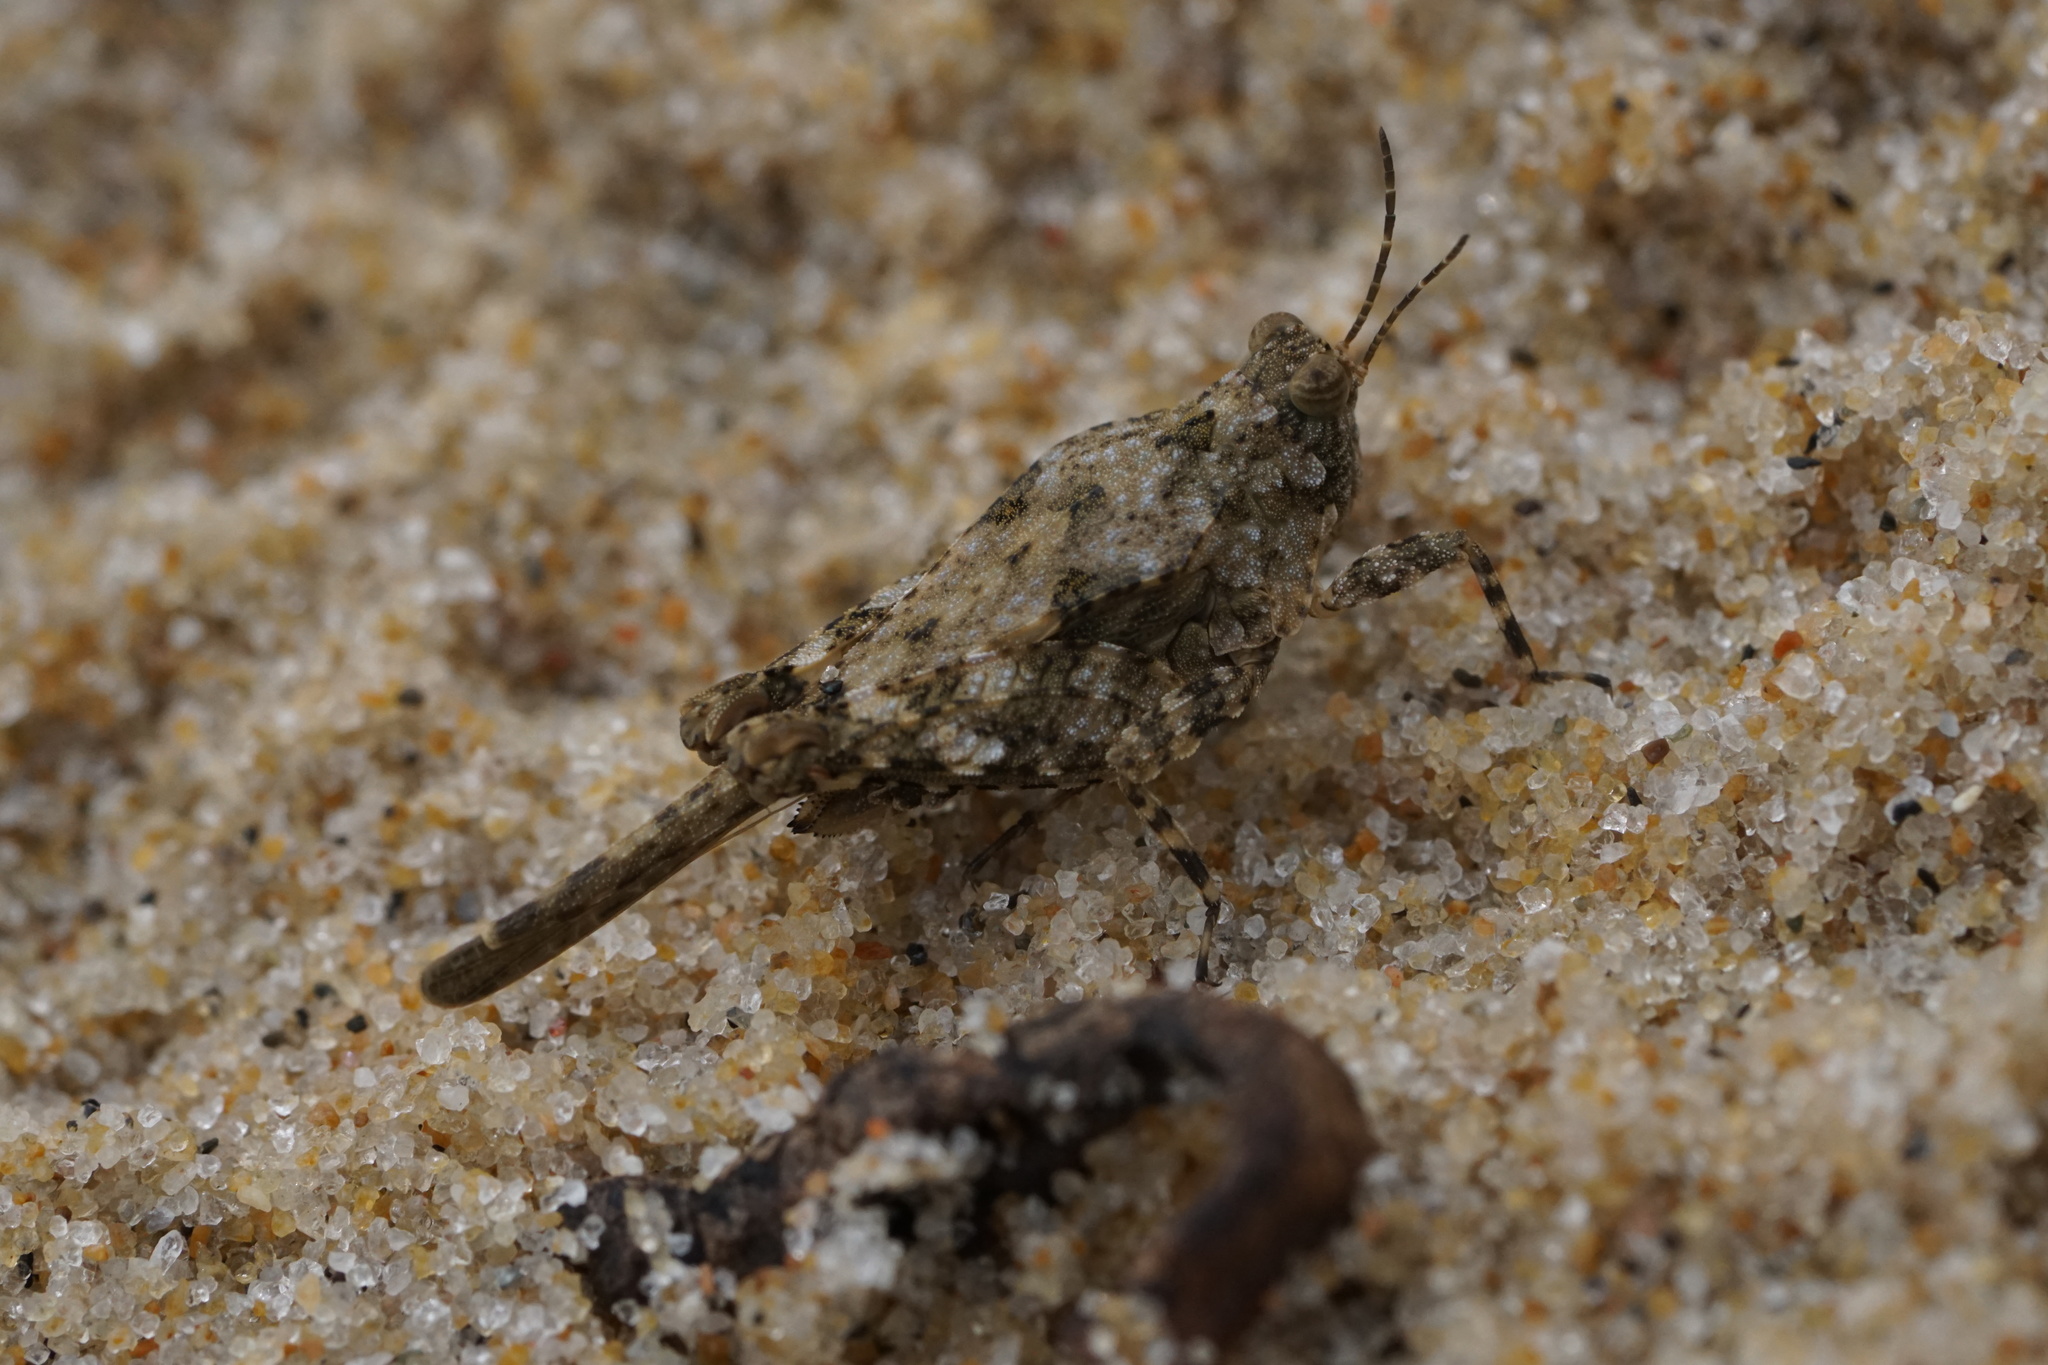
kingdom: Animalia
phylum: Arthropoda
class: Insecta
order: Orthoptera
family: Tetrigidae
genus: Paratettix
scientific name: Paratettix cucullatus
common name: Hooded grouse locust
